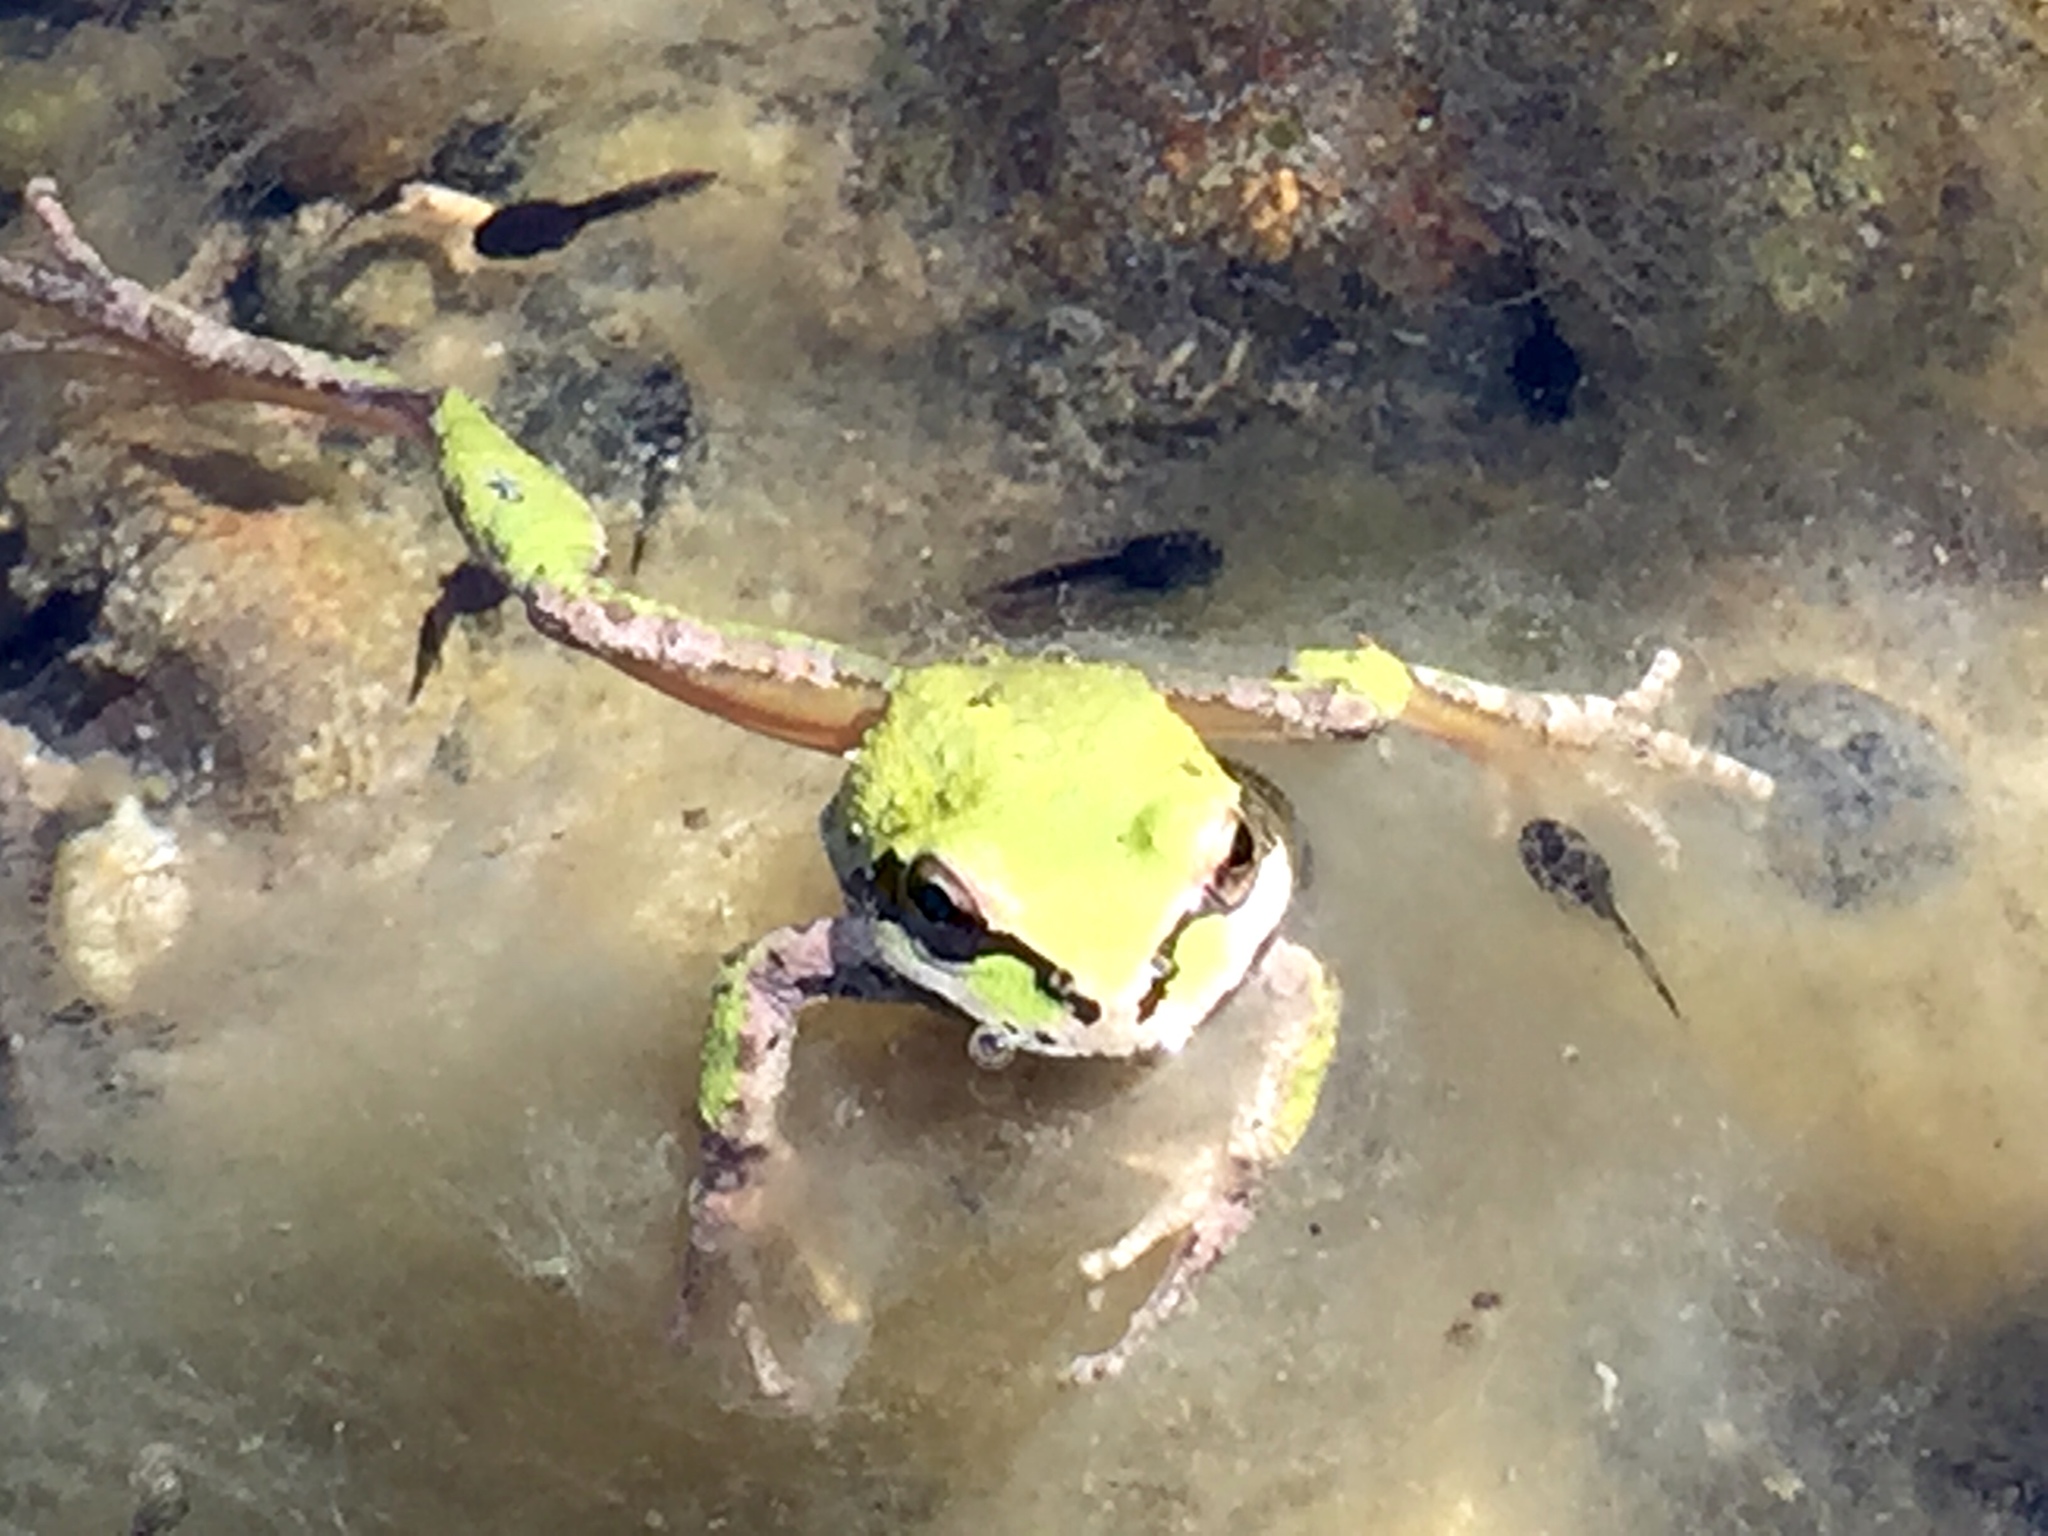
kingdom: Animalia
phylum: Chordata
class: Amphibia
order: Anura
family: Hylidae
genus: Pseudacris
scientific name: Pseudacris regilla
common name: Pacific chorus frog
